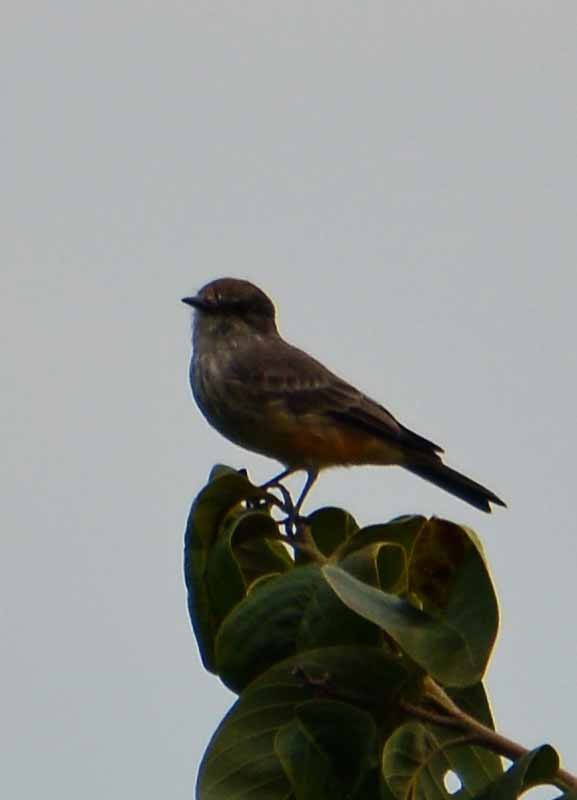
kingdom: Animalia
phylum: Chordata
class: Aves
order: Passeriformes
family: Tyrannidae
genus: Pyrocephalus
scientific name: Pyrocephalus rubinus
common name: Vermilion flycatcher
